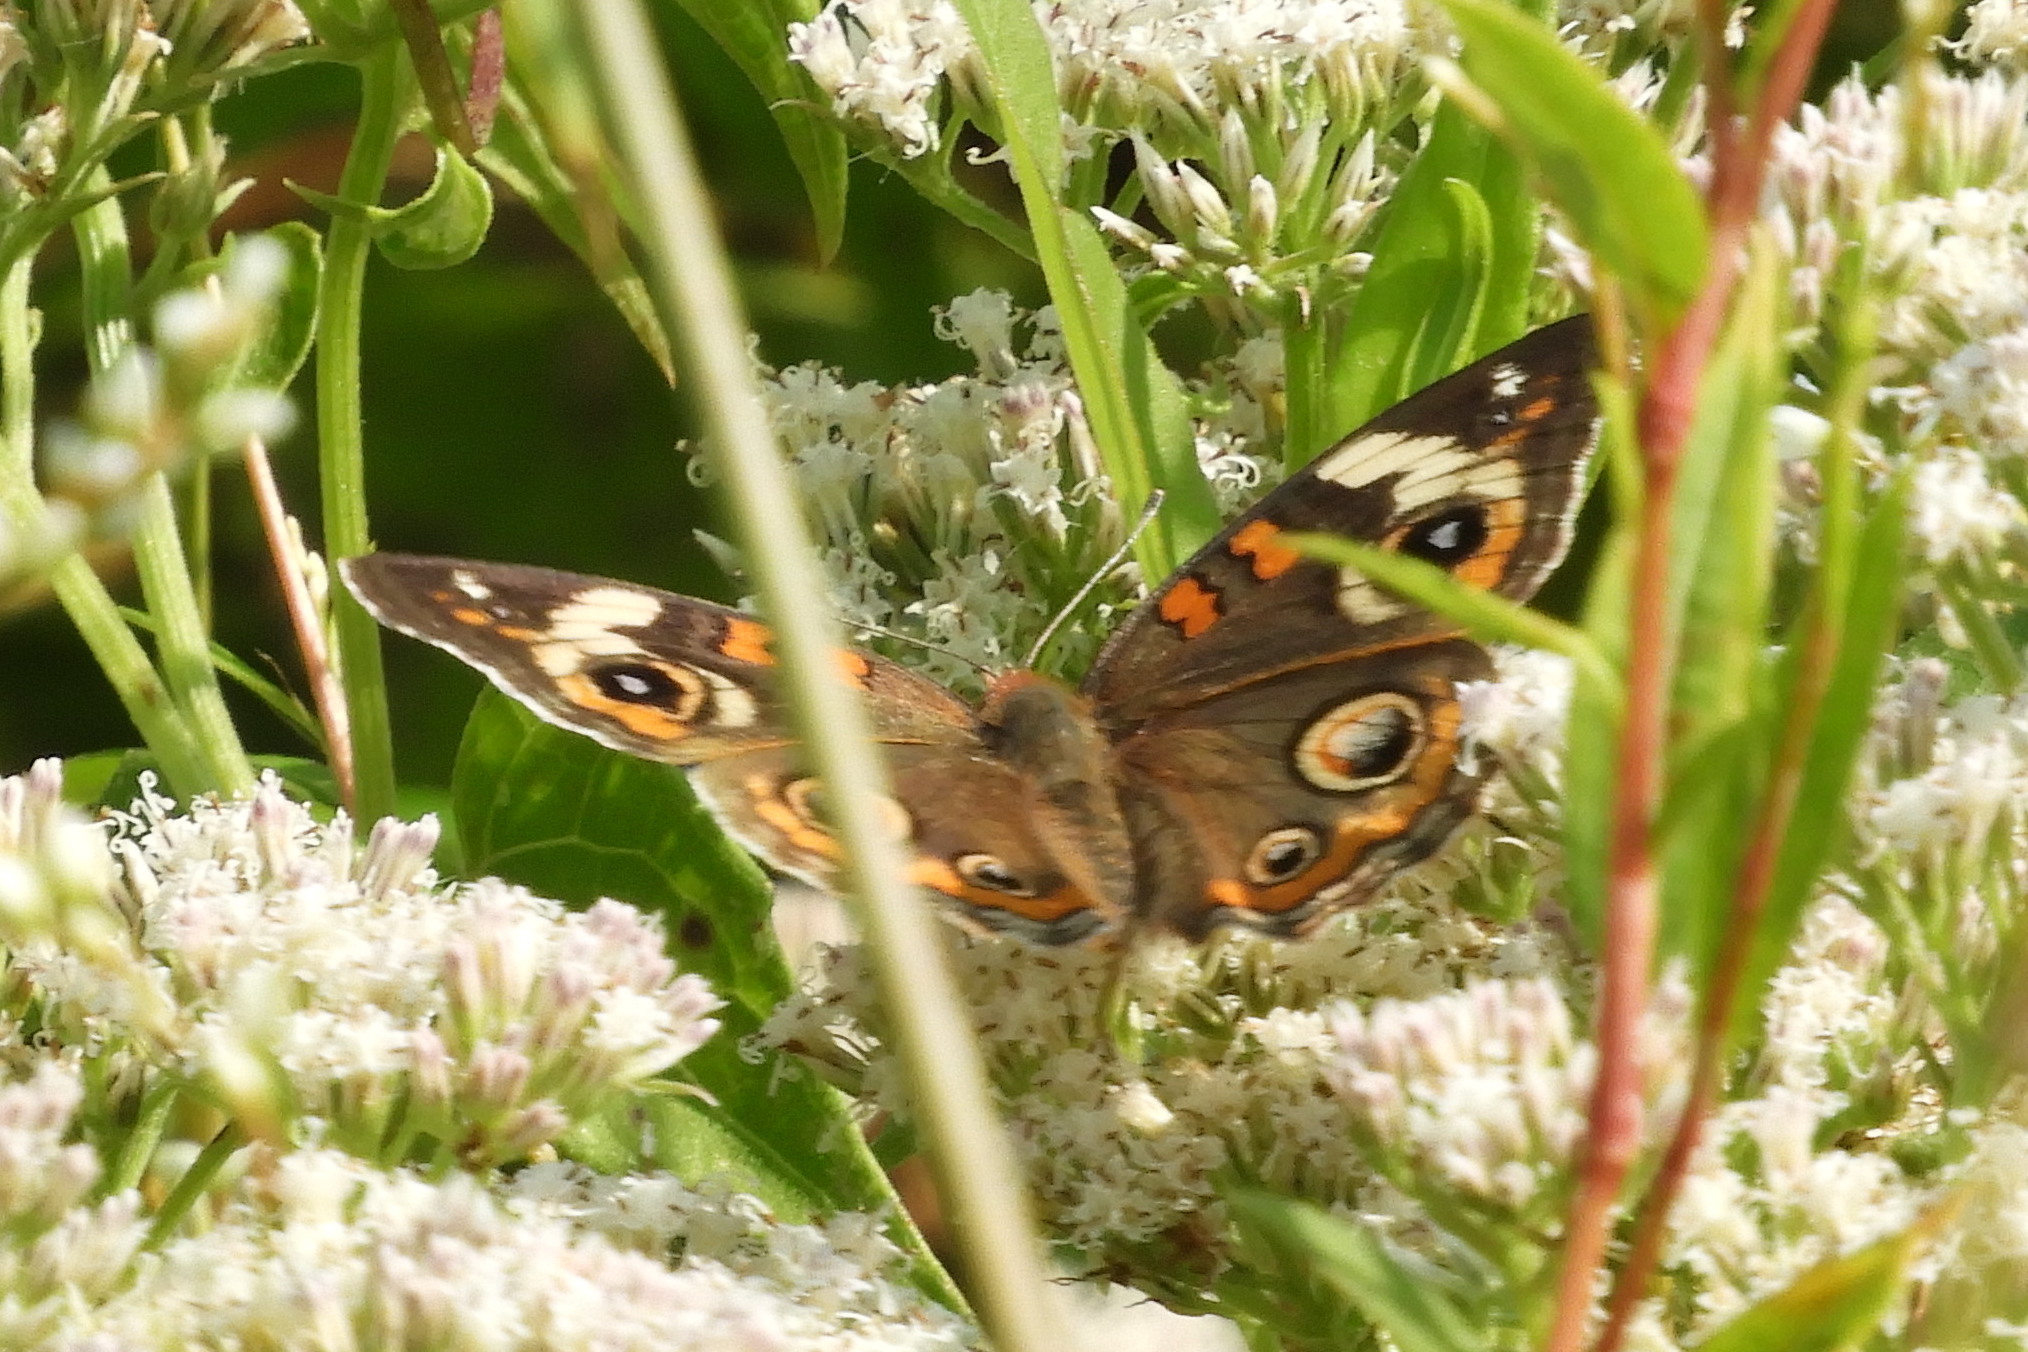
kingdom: Animalia
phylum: Arthropoda
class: Insecta
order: Lepidoptera
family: Nymphalidae
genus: Junonia
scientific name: Junonia coenia
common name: Common buckeye
